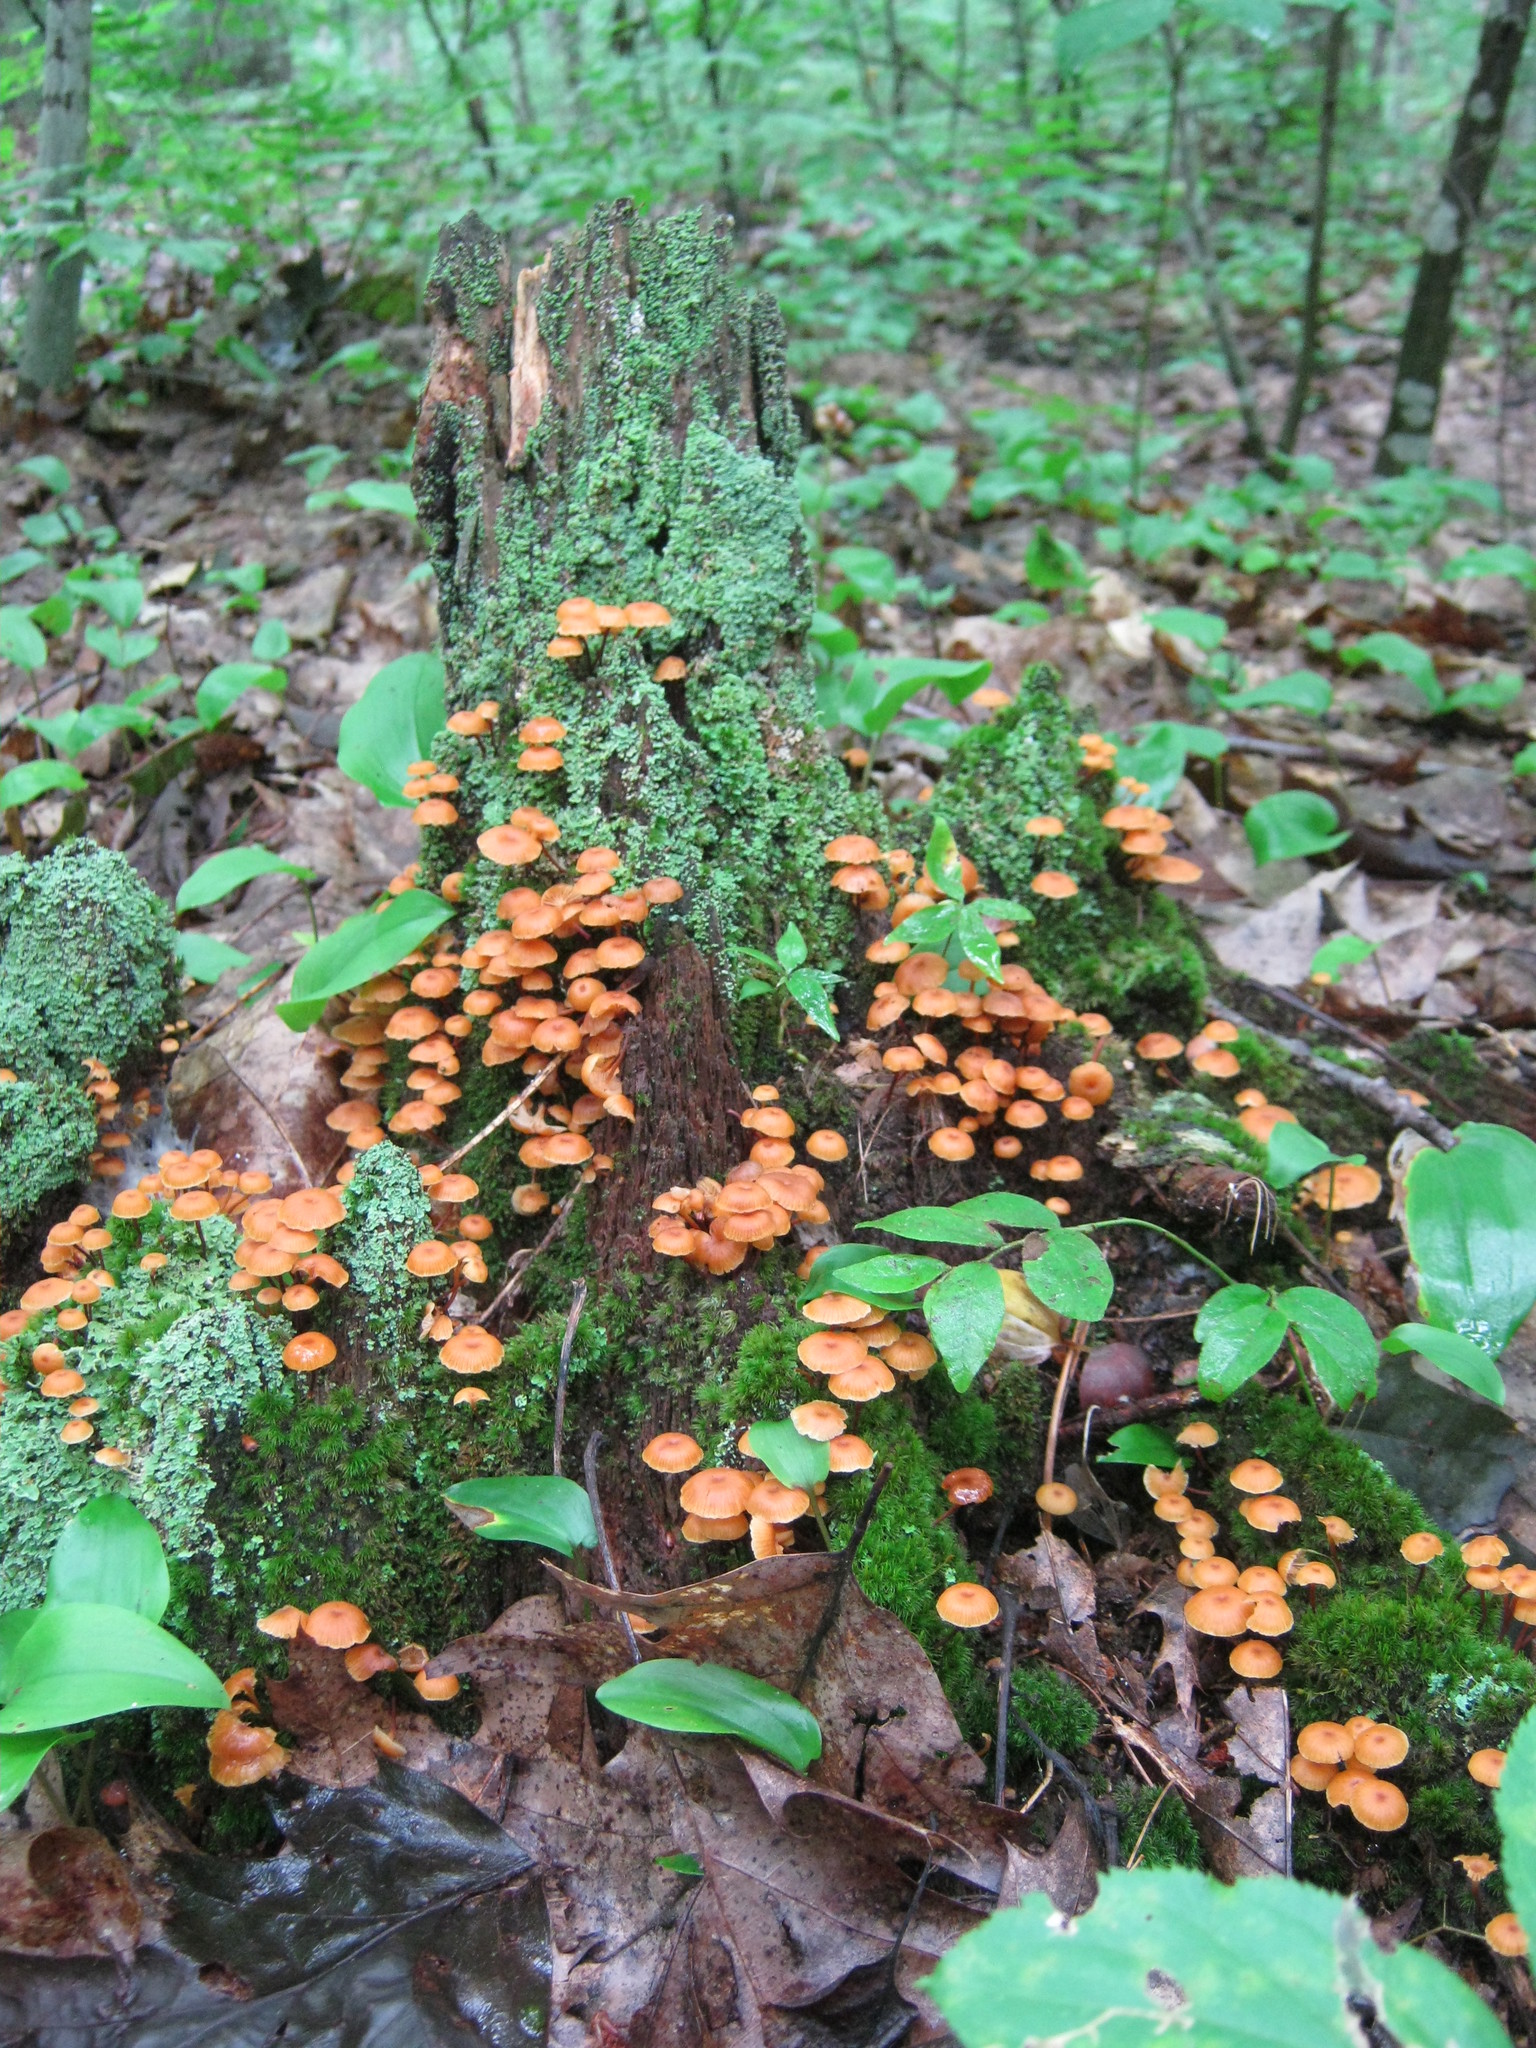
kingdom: Fungi
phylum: Basidiomycota
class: Agaricomycetes
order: Agaricales
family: Mycenaceae
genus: Xeromphalina
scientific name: Xeromphalina campanella
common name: Pinewood gingertail
